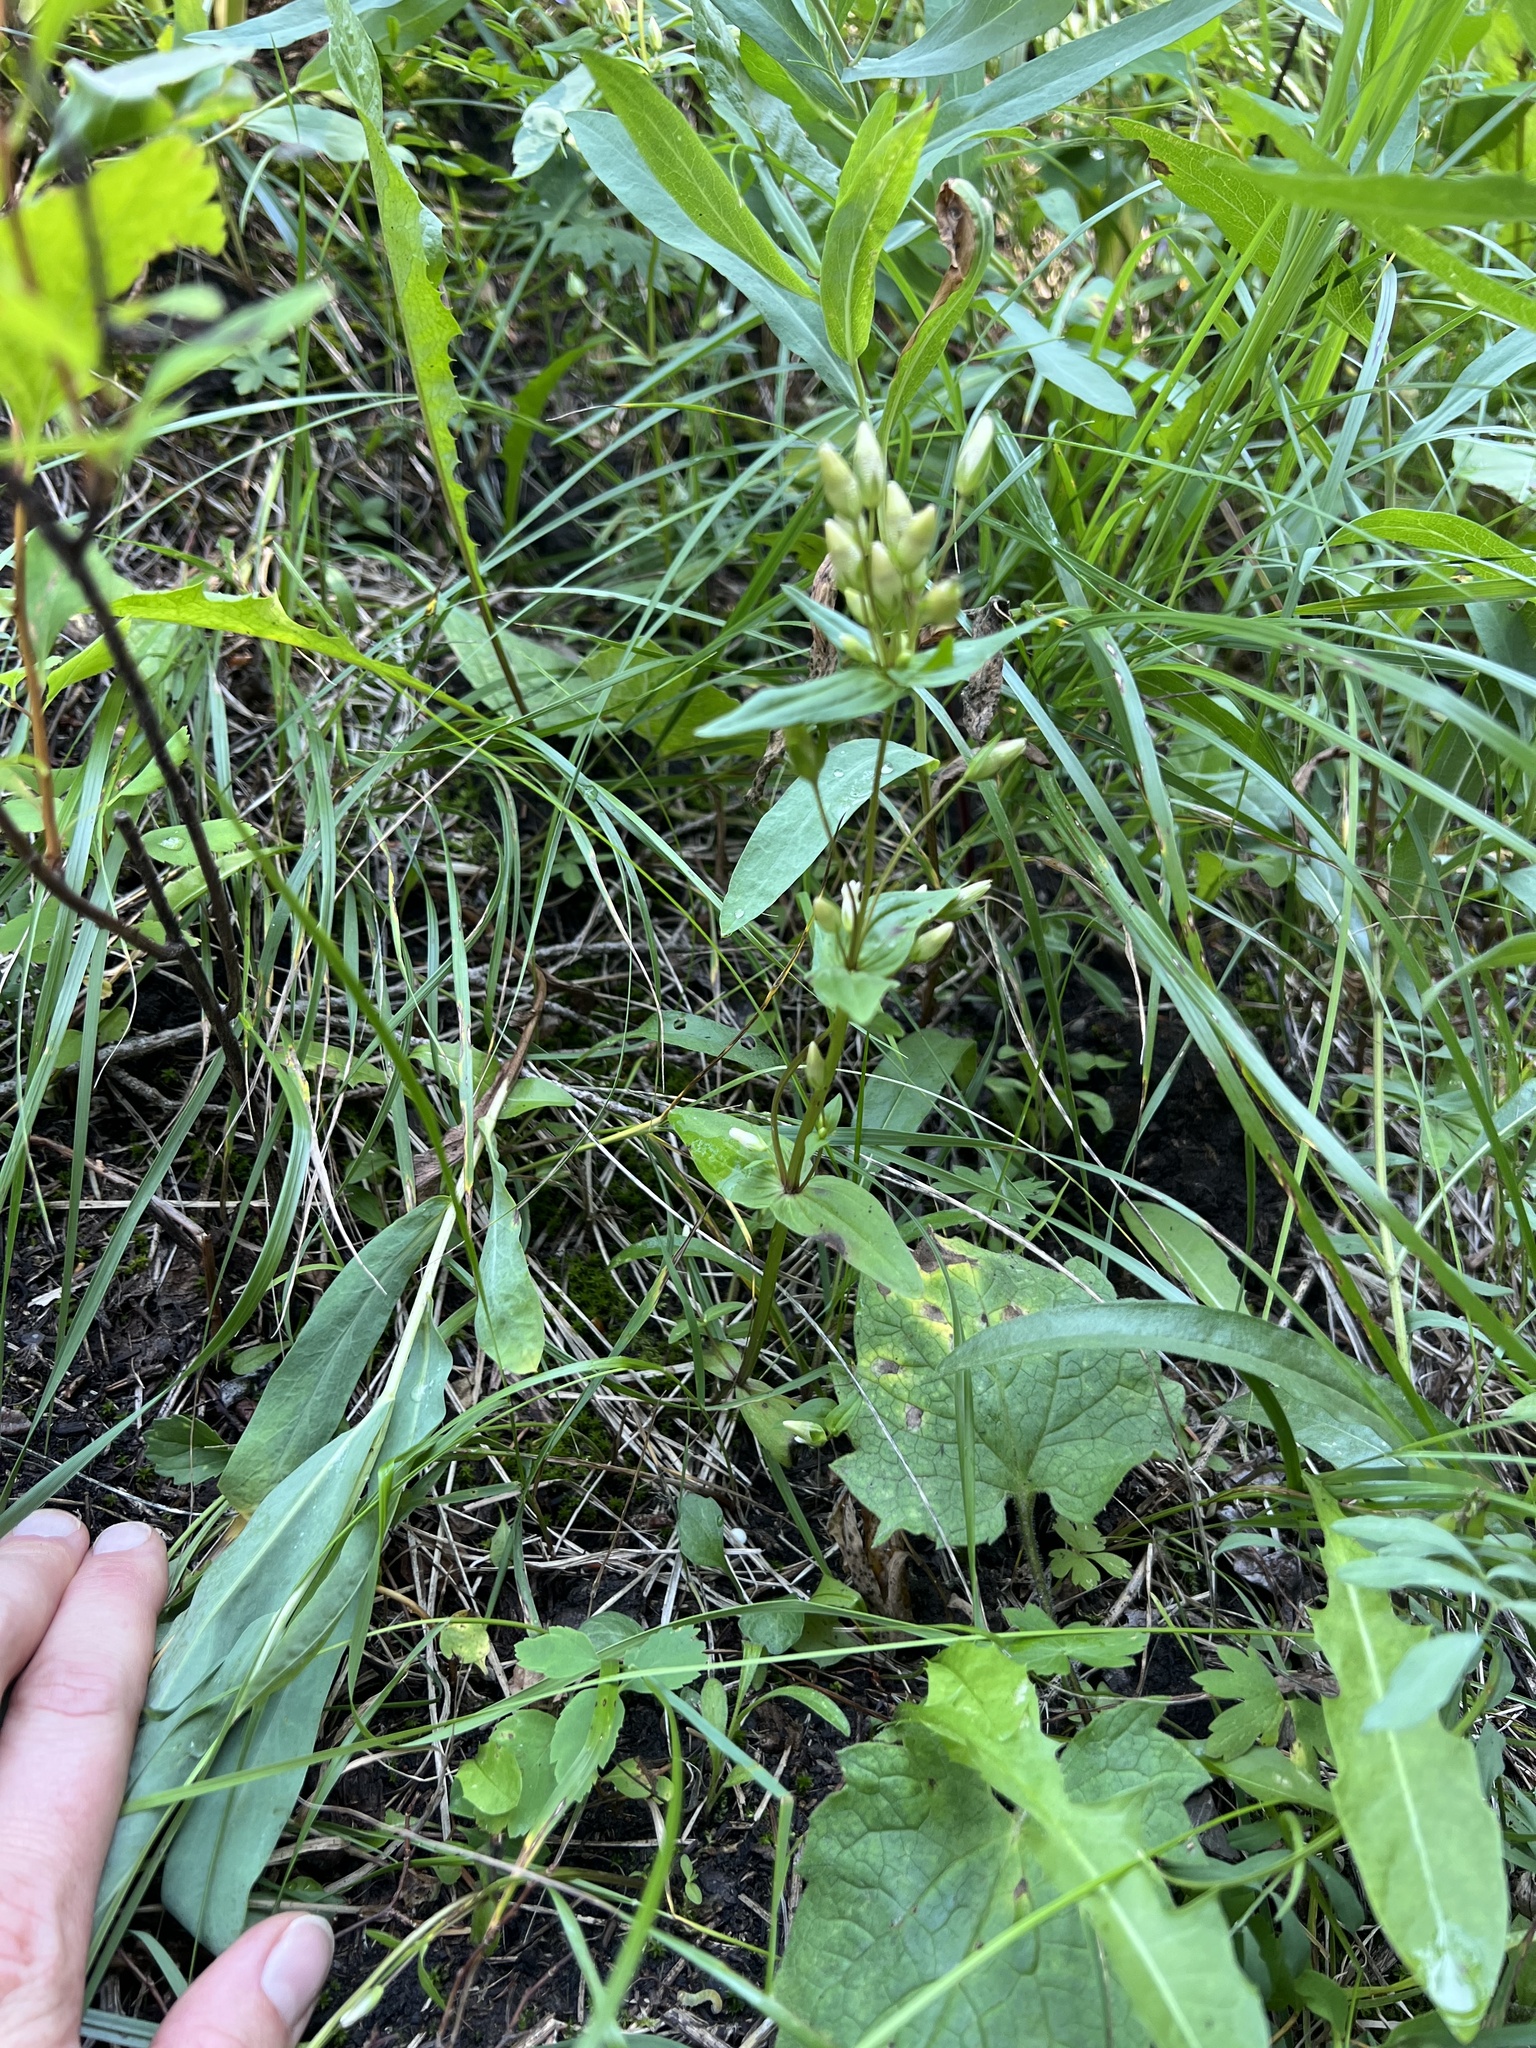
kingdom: Plantae
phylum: Tracheophyta
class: Magnoliopsida
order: Gentianales
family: Gentianaceae
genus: Gentianella
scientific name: Gentianella amarella
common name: Autumn gentian
